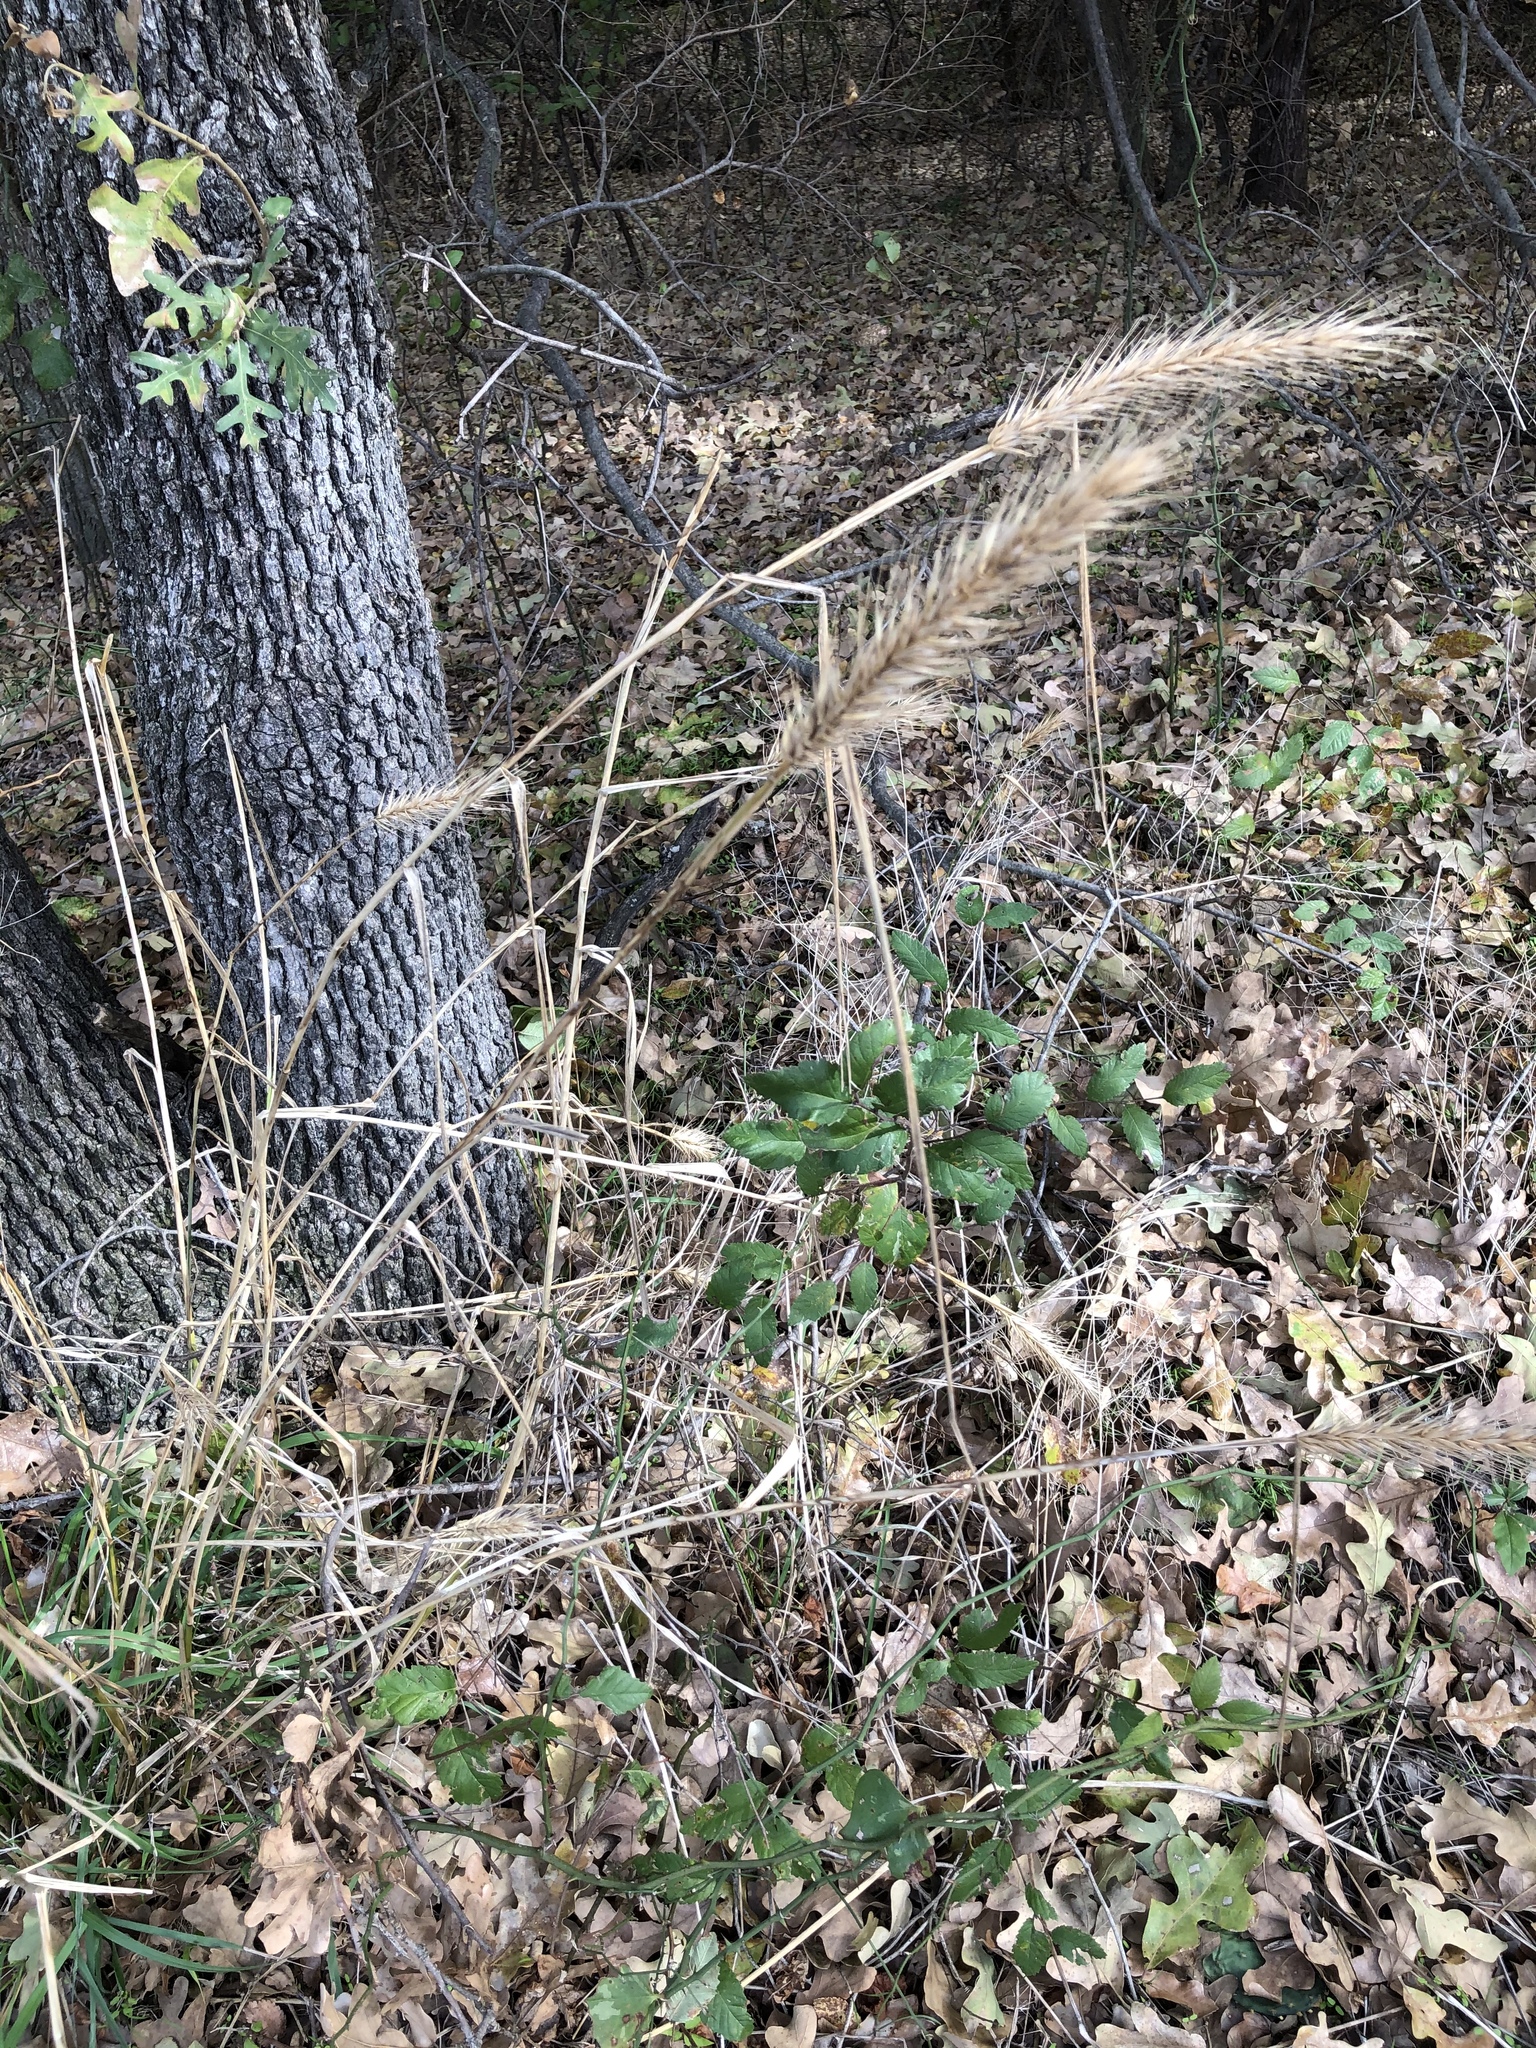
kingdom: Plantae
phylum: Tracheophyta
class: Liliopsida
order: Poales
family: Poaceae
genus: Elymus
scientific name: Elymus canadensis
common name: Canada wild rye
